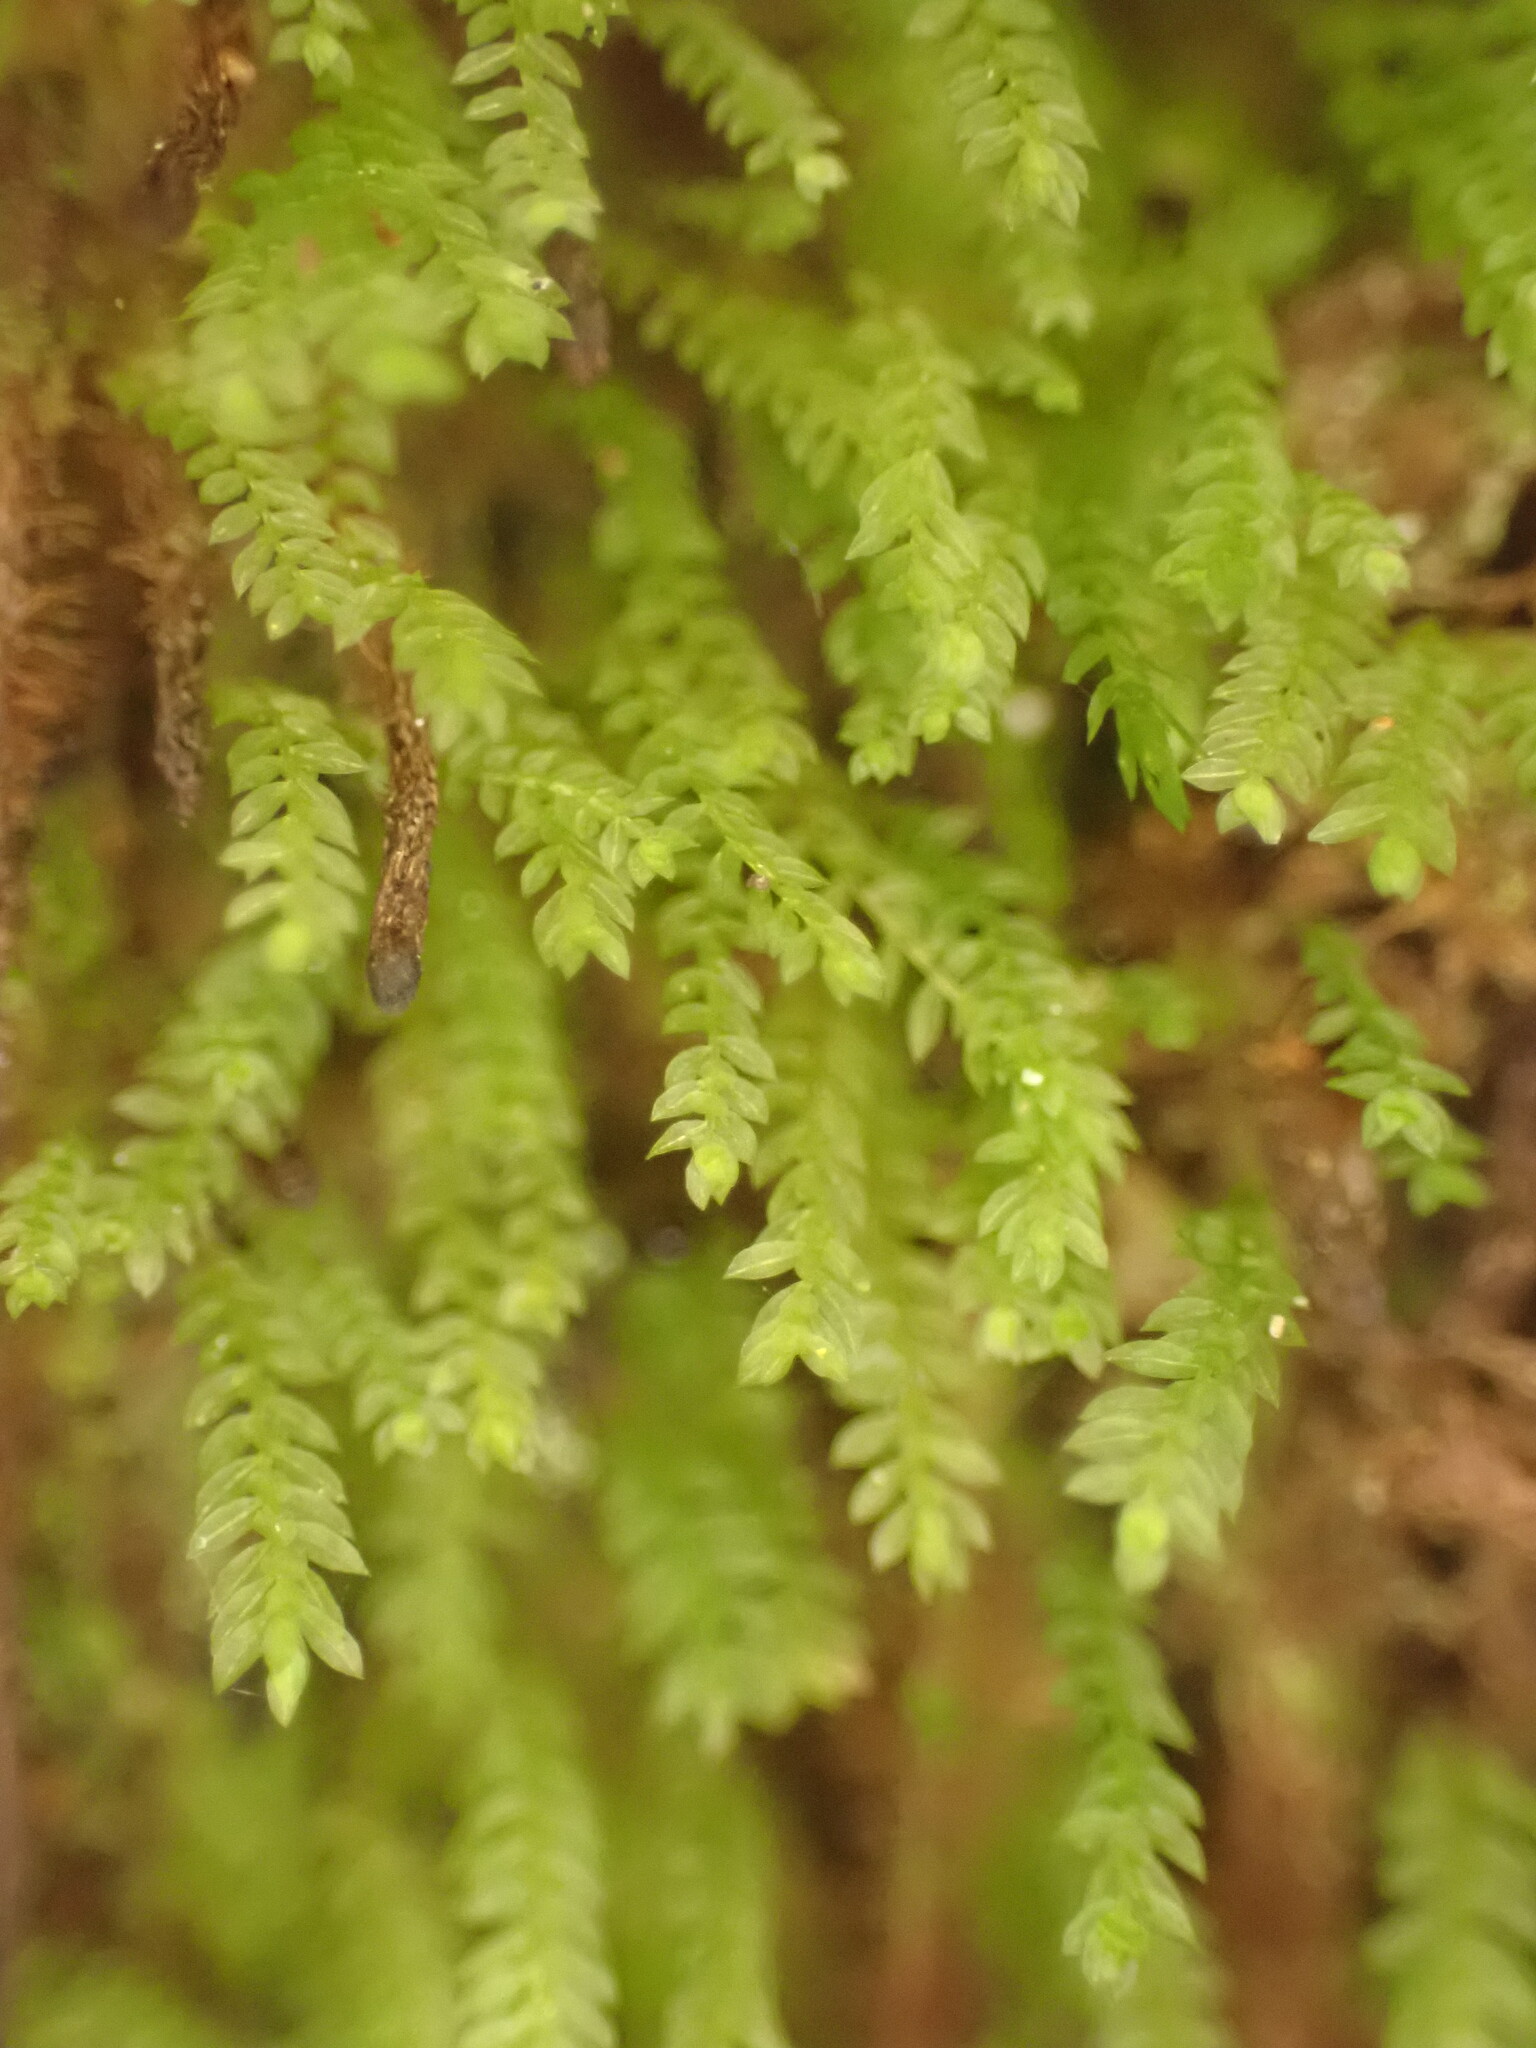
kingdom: Plantae
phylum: Bryophyta
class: Bryopsida
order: Rhizogoniales
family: Calomniaceae
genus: Calomnion
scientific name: Calomnion complanatum
